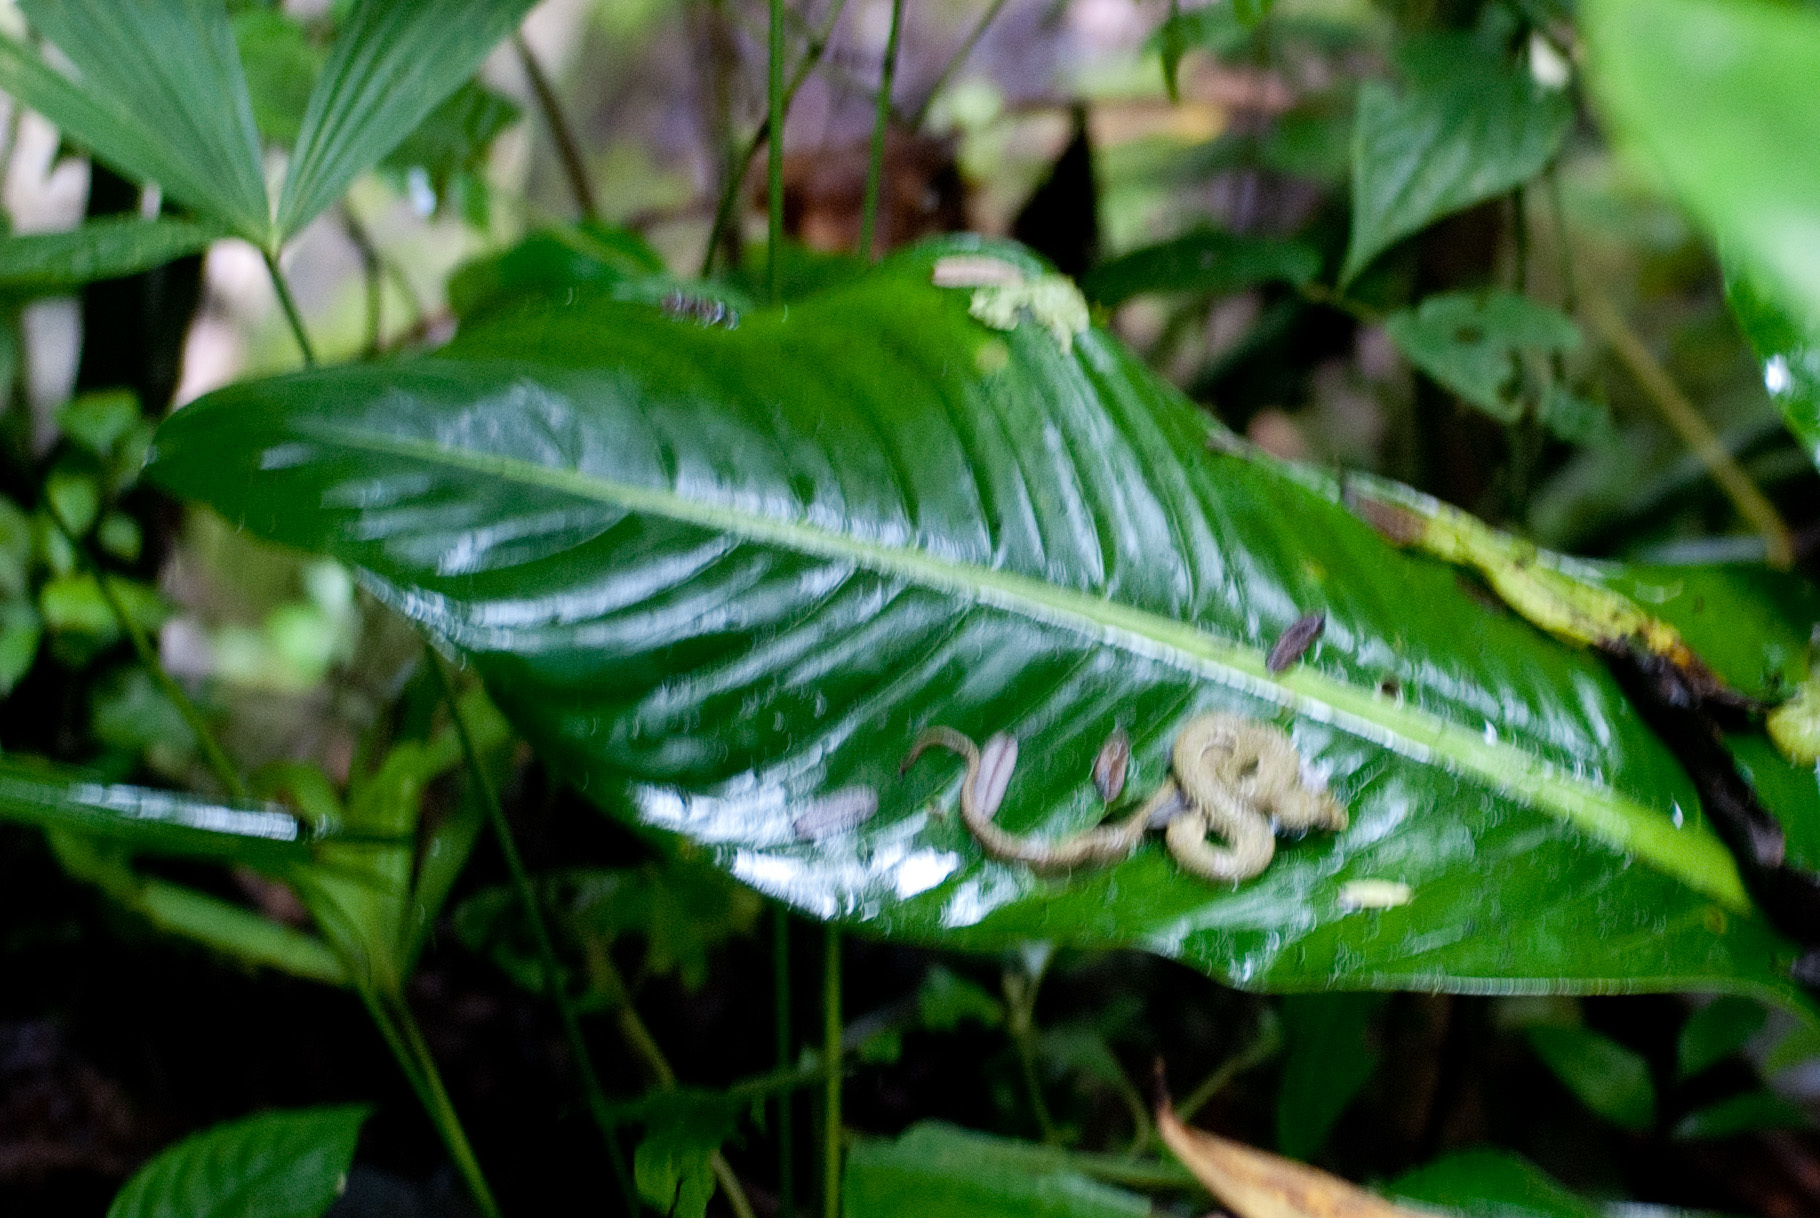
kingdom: Animalia
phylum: Chordata
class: Squamata
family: Viperidae
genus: Bothriechis
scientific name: Bothriechis schlegelii
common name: Eyelash viper
